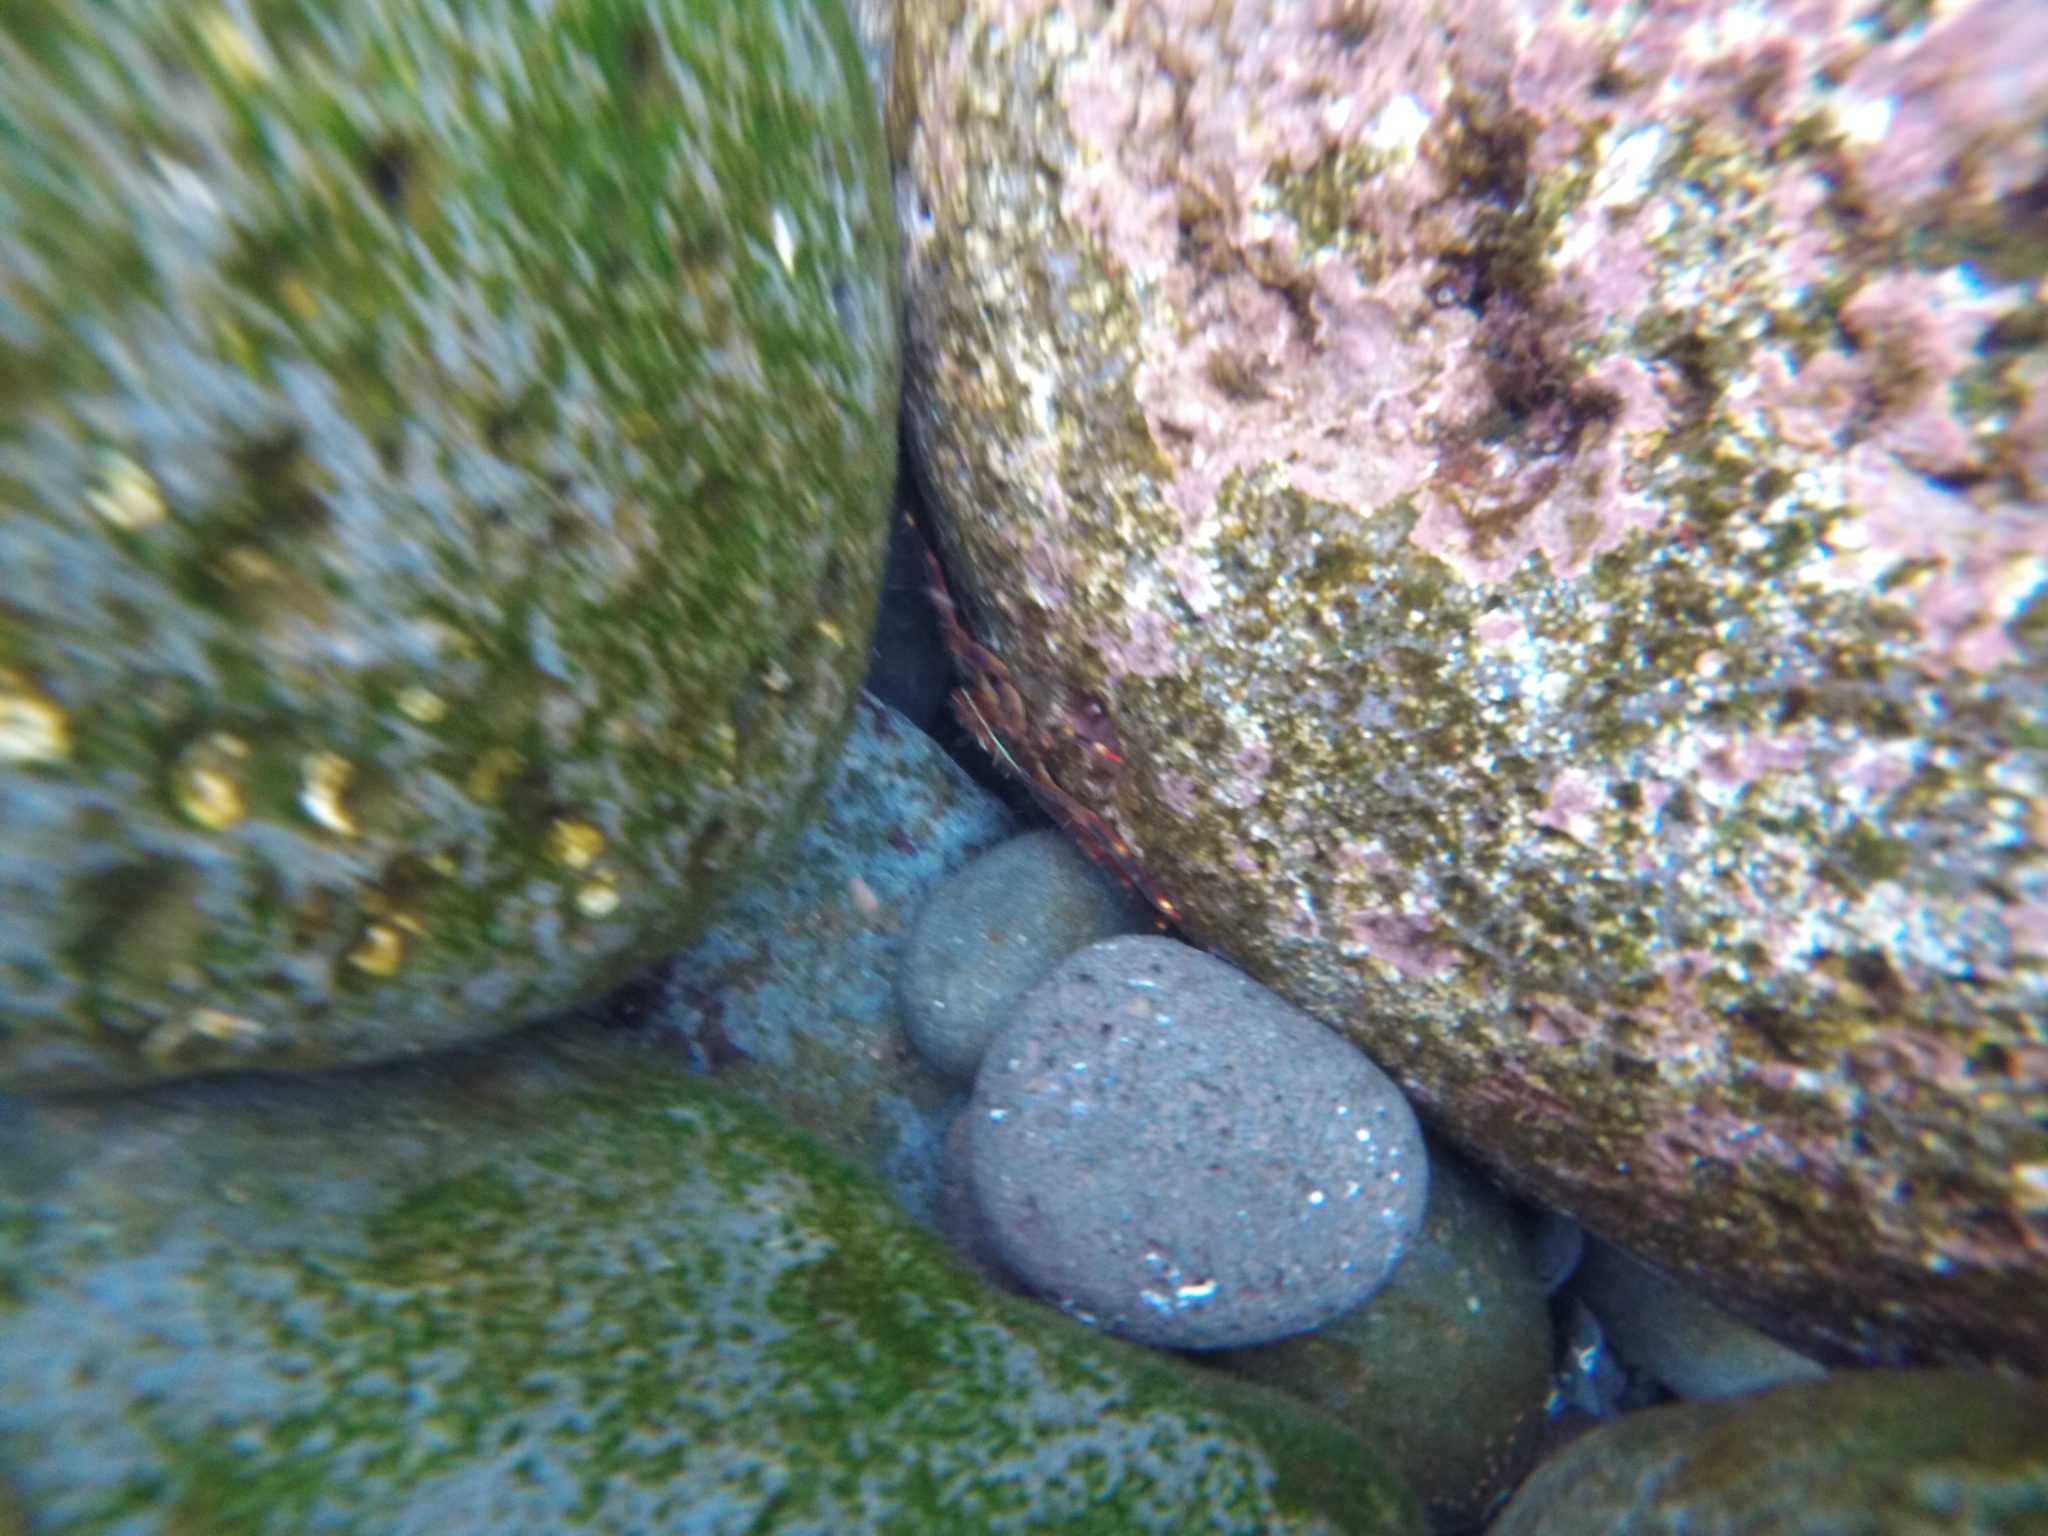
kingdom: Animalia
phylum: Arthropoda
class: Malacostraca
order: Decapoda
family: Percnidae
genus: Percnon
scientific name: Percnon gibbesi
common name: Nimble spray crab
